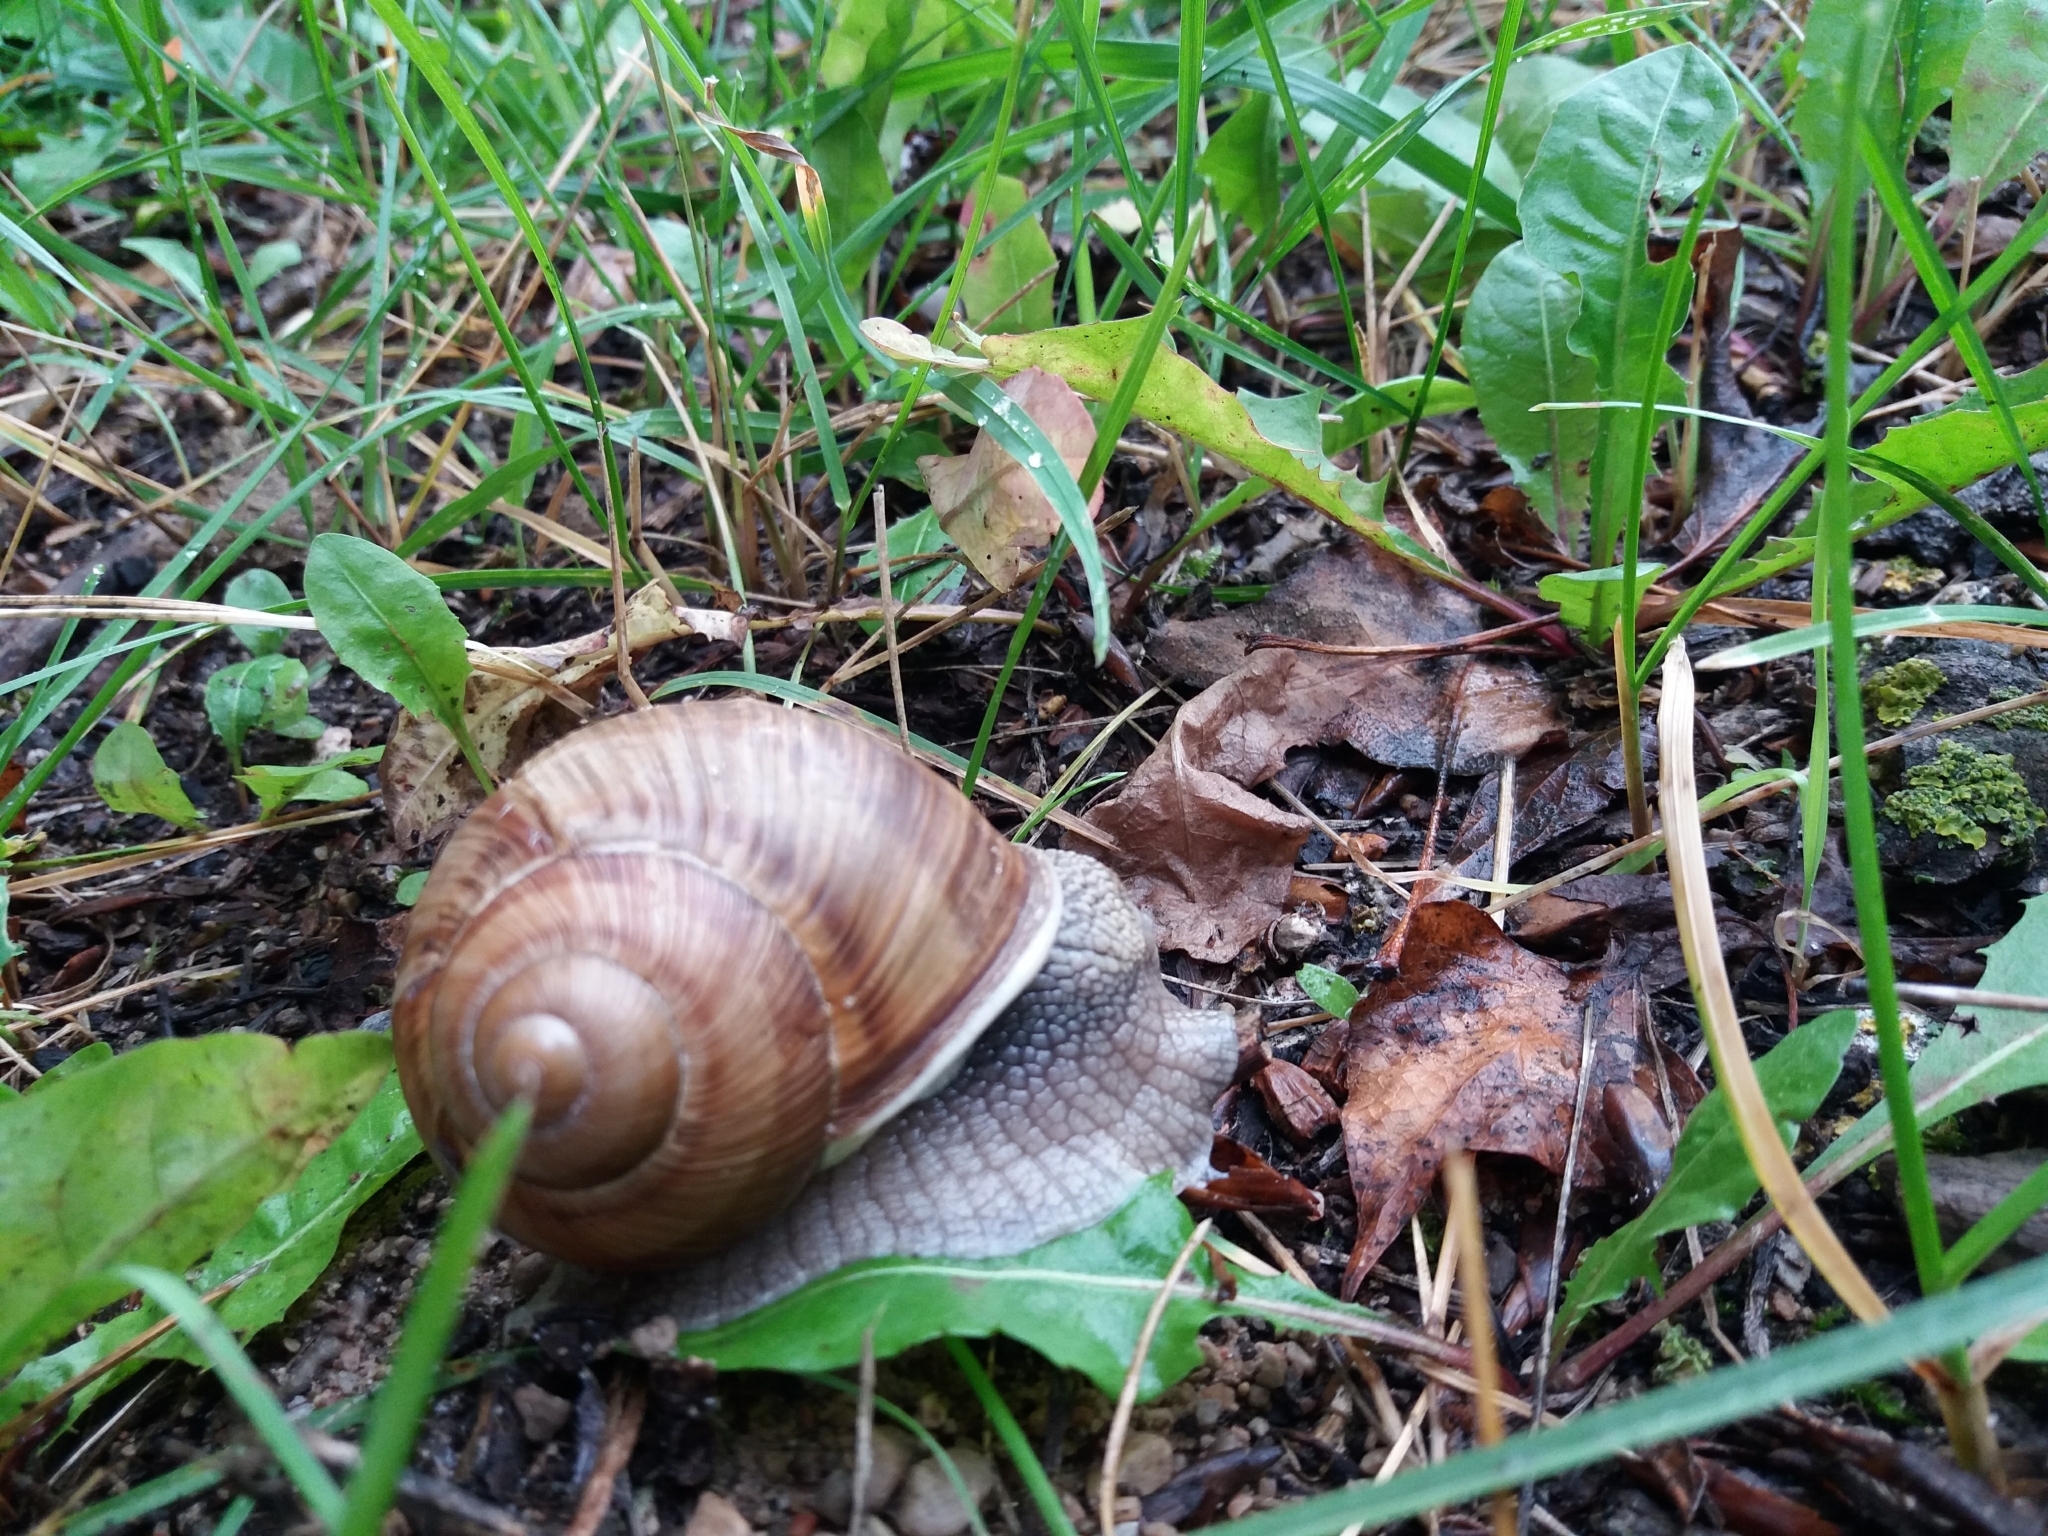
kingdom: Animalia
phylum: Mollusca
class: Gastropoda
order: Stylommatophora
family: Helicidae
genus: Helix
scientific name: Helix pomatia
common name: Roman snail
